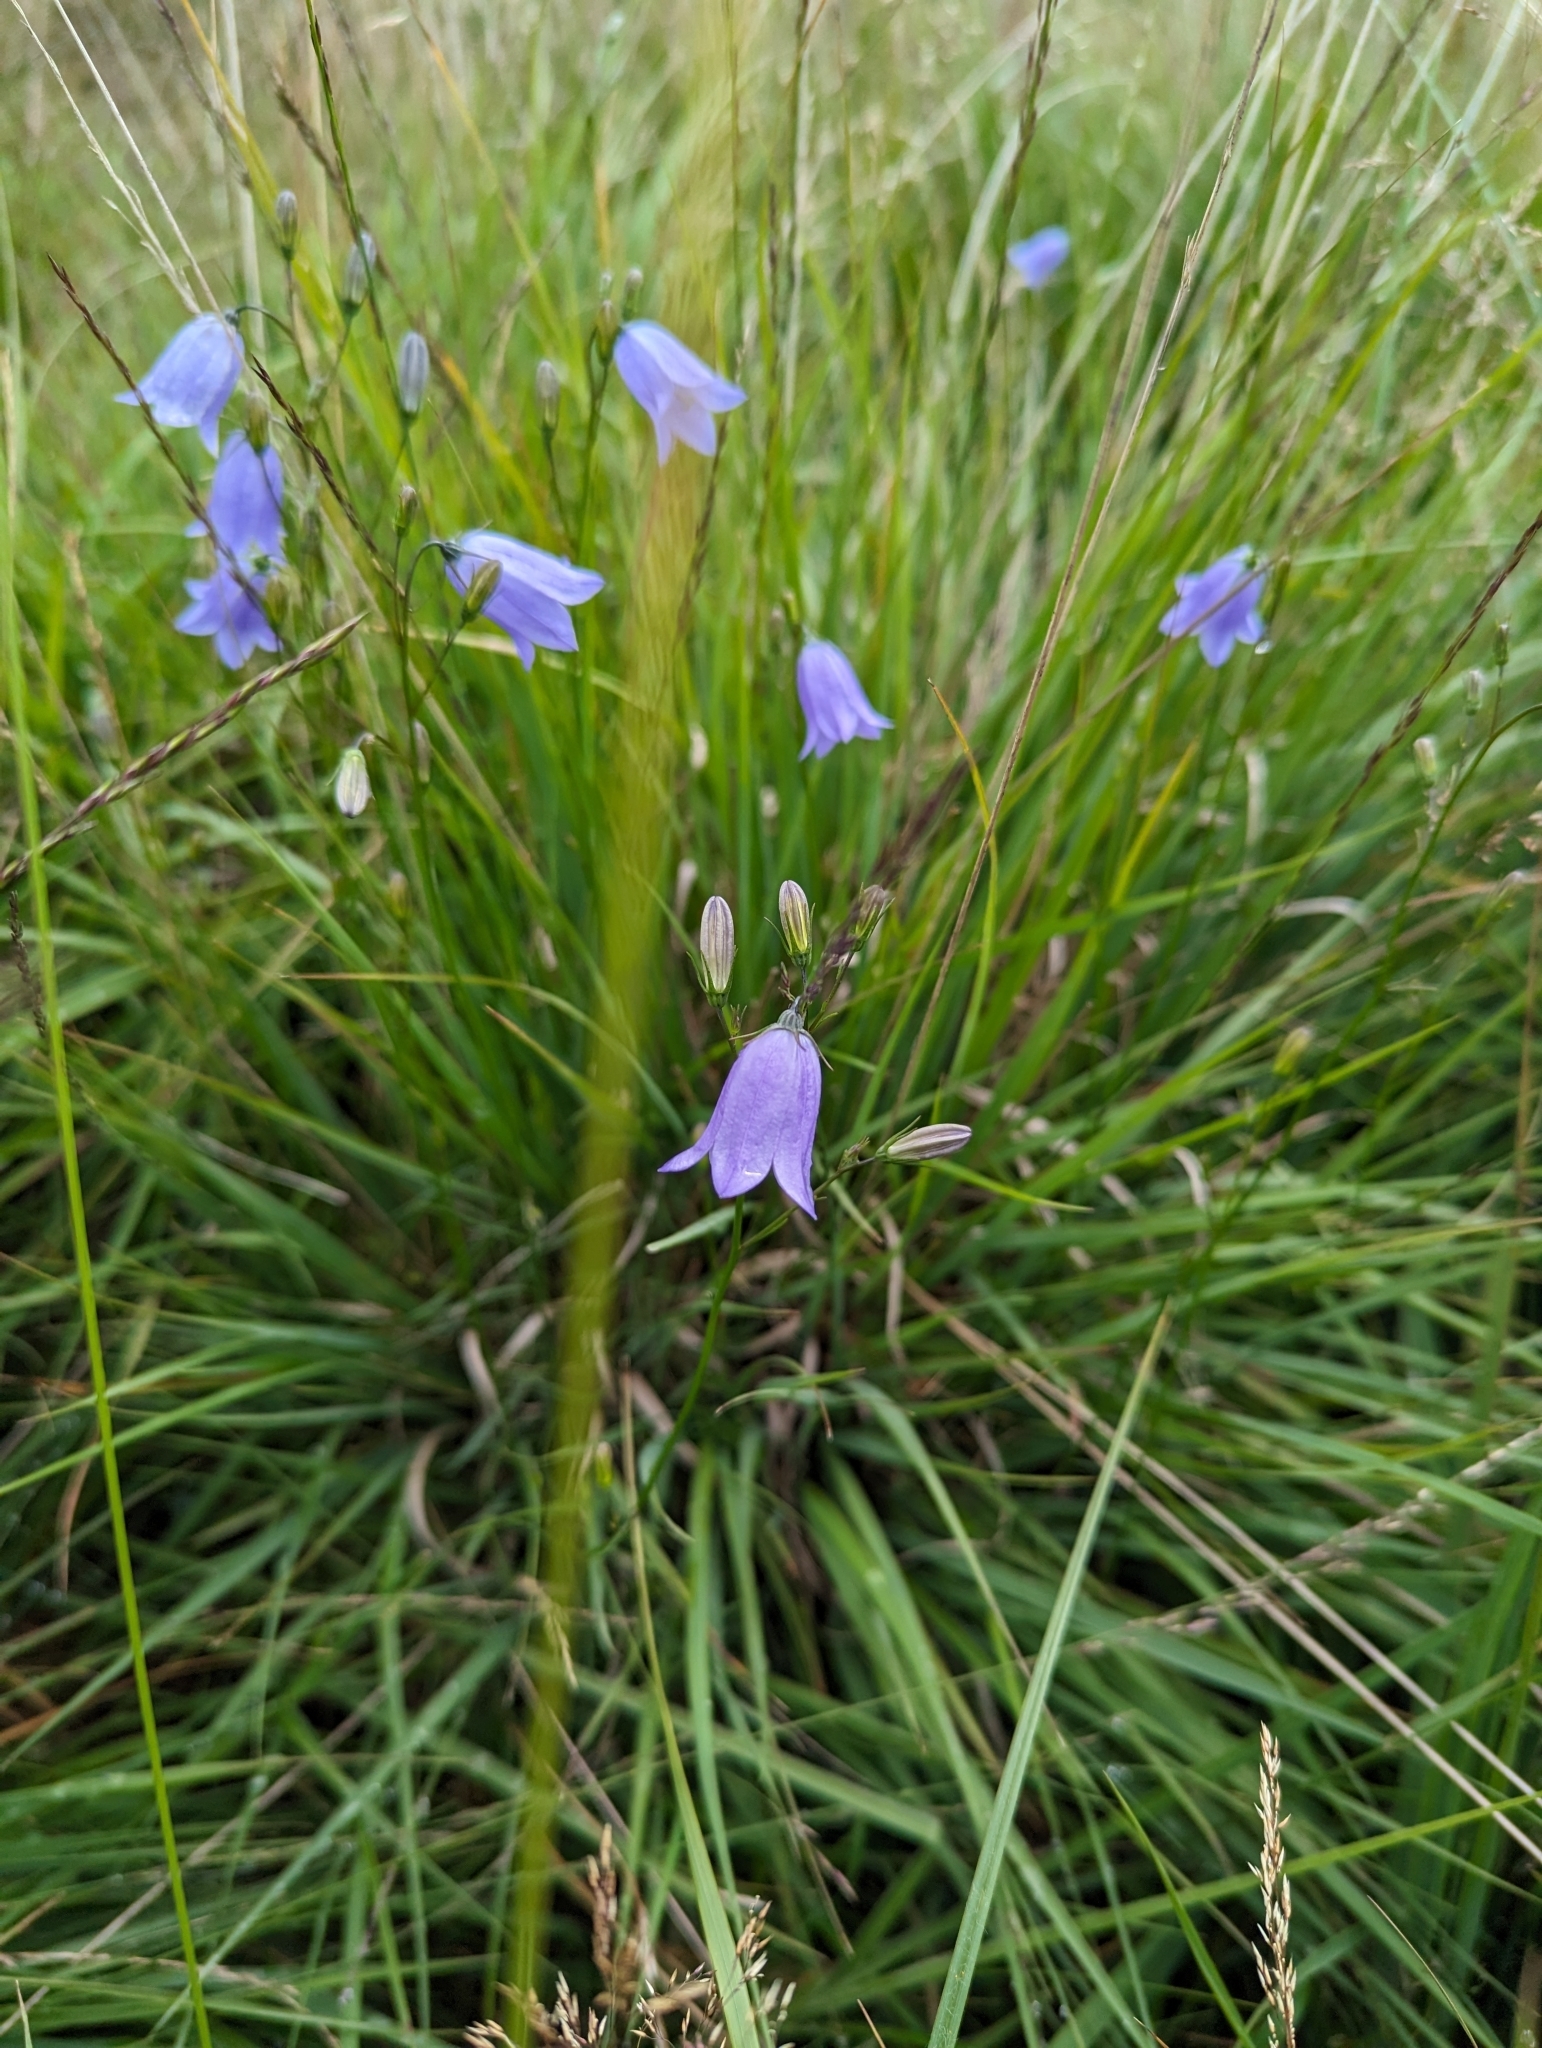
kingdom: Plantae
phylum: Tracheophyta
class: Magnoliopsida
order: Asterales
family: Campanulaceae
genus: Campanula
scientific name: Campanula rotundifolia
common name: Harebell
